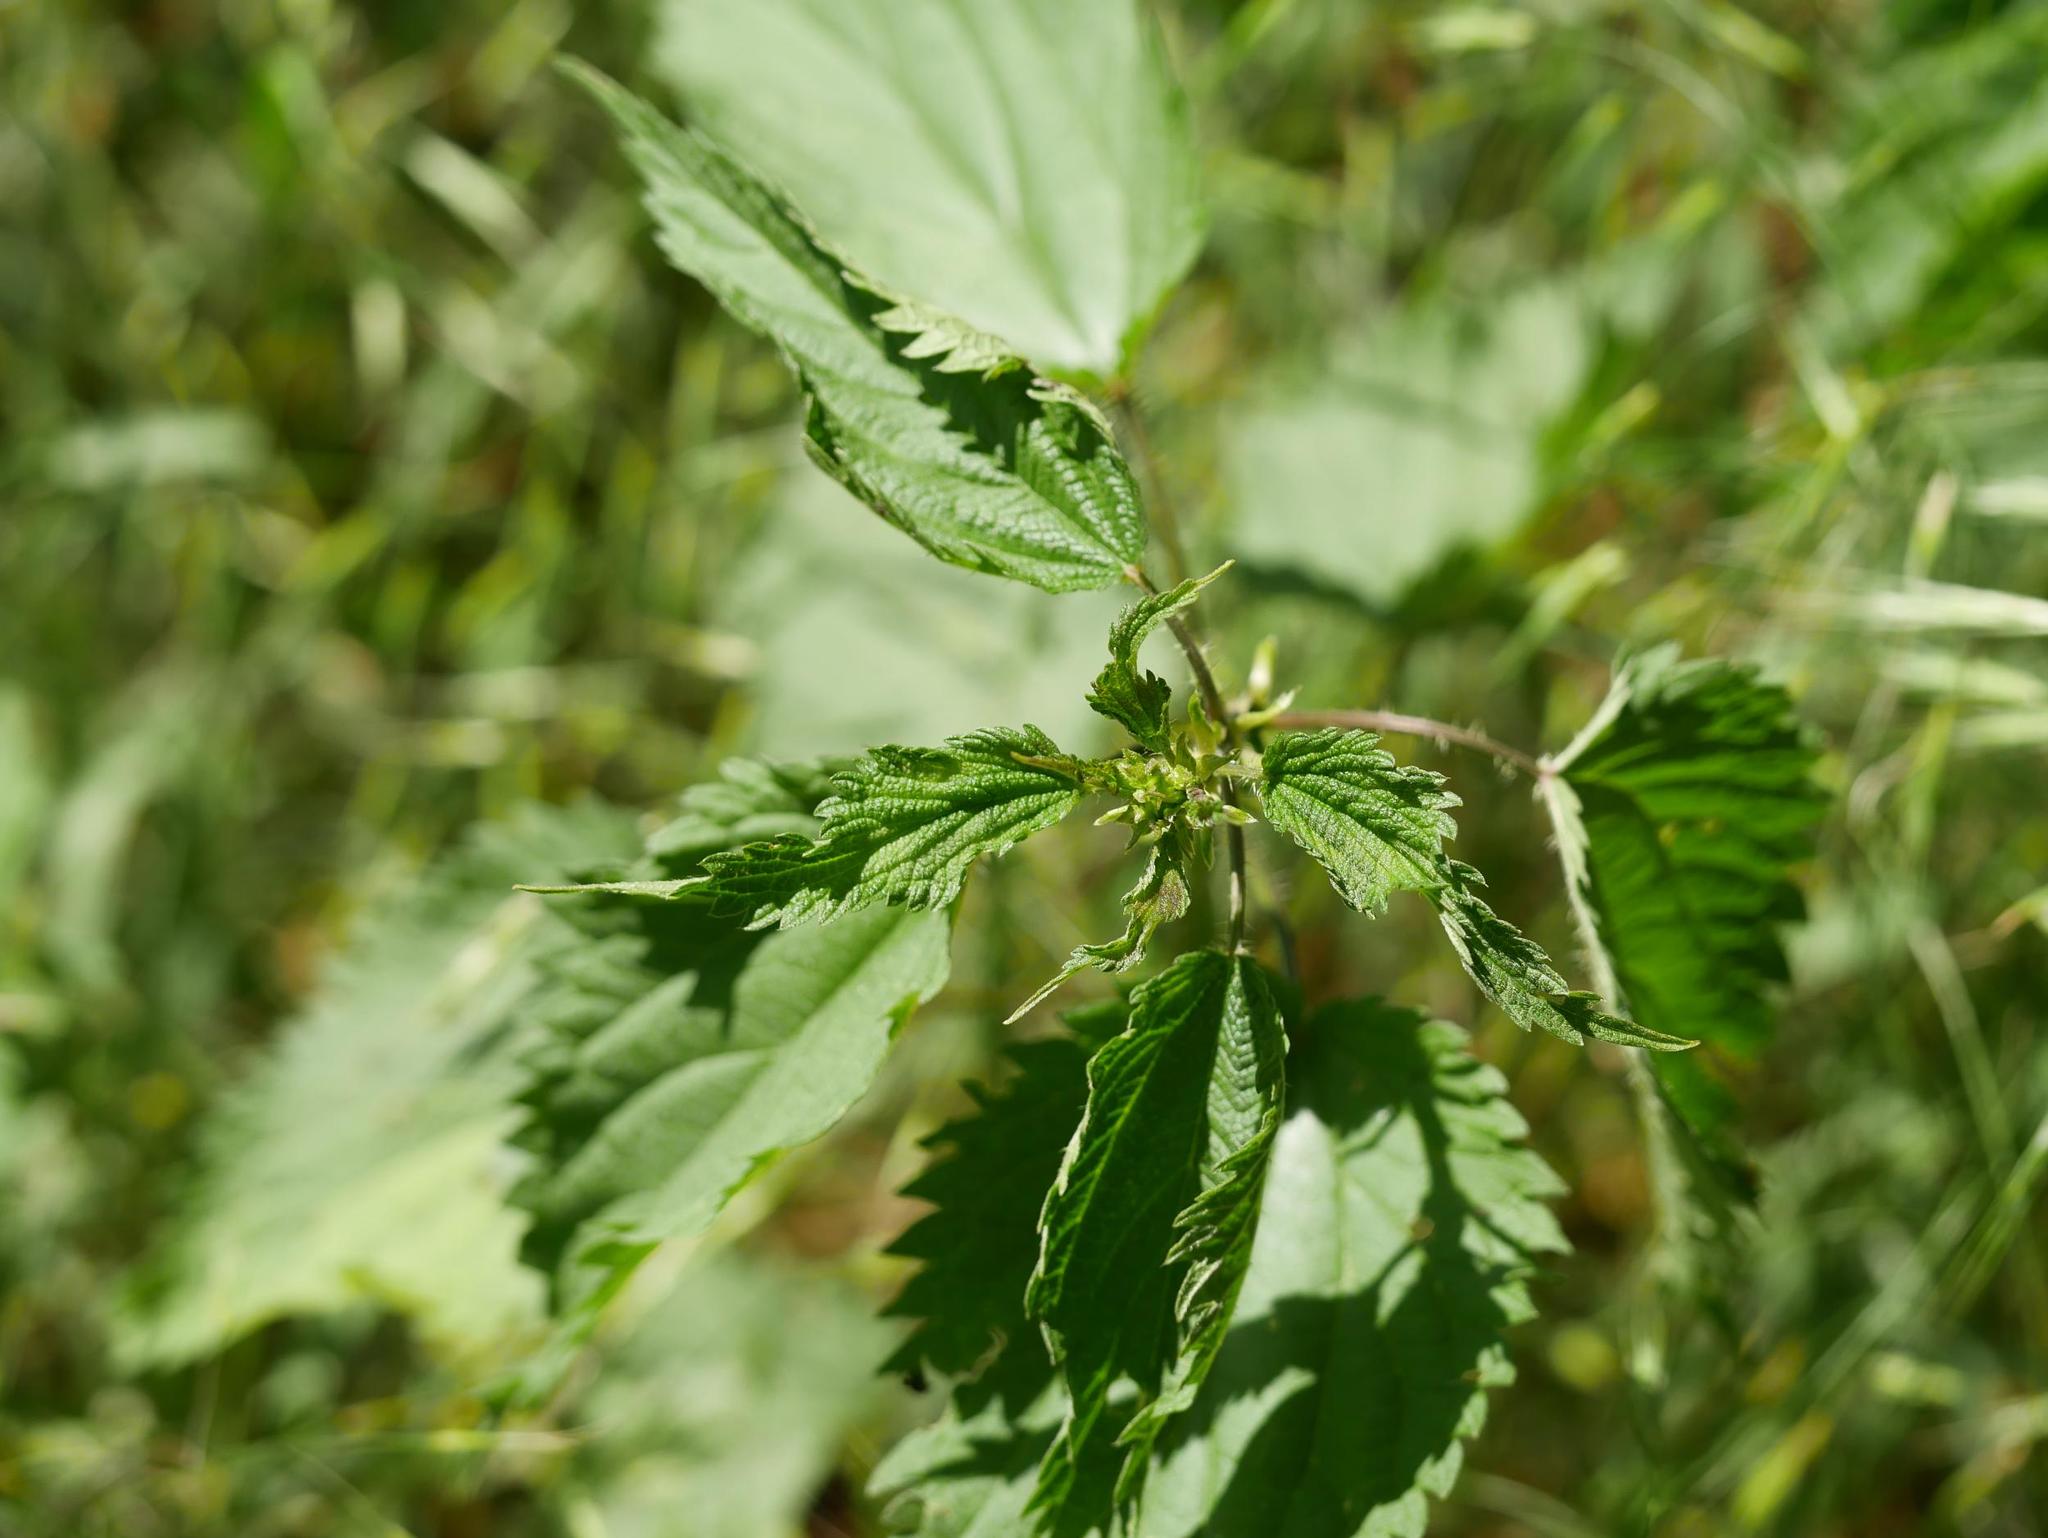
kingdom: Plantae
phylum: Tracheophyta
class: Magnoliopsida
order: Rosales
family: Urticaceae
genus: Urtica
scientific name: Urtica dioica
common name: Common nettle
